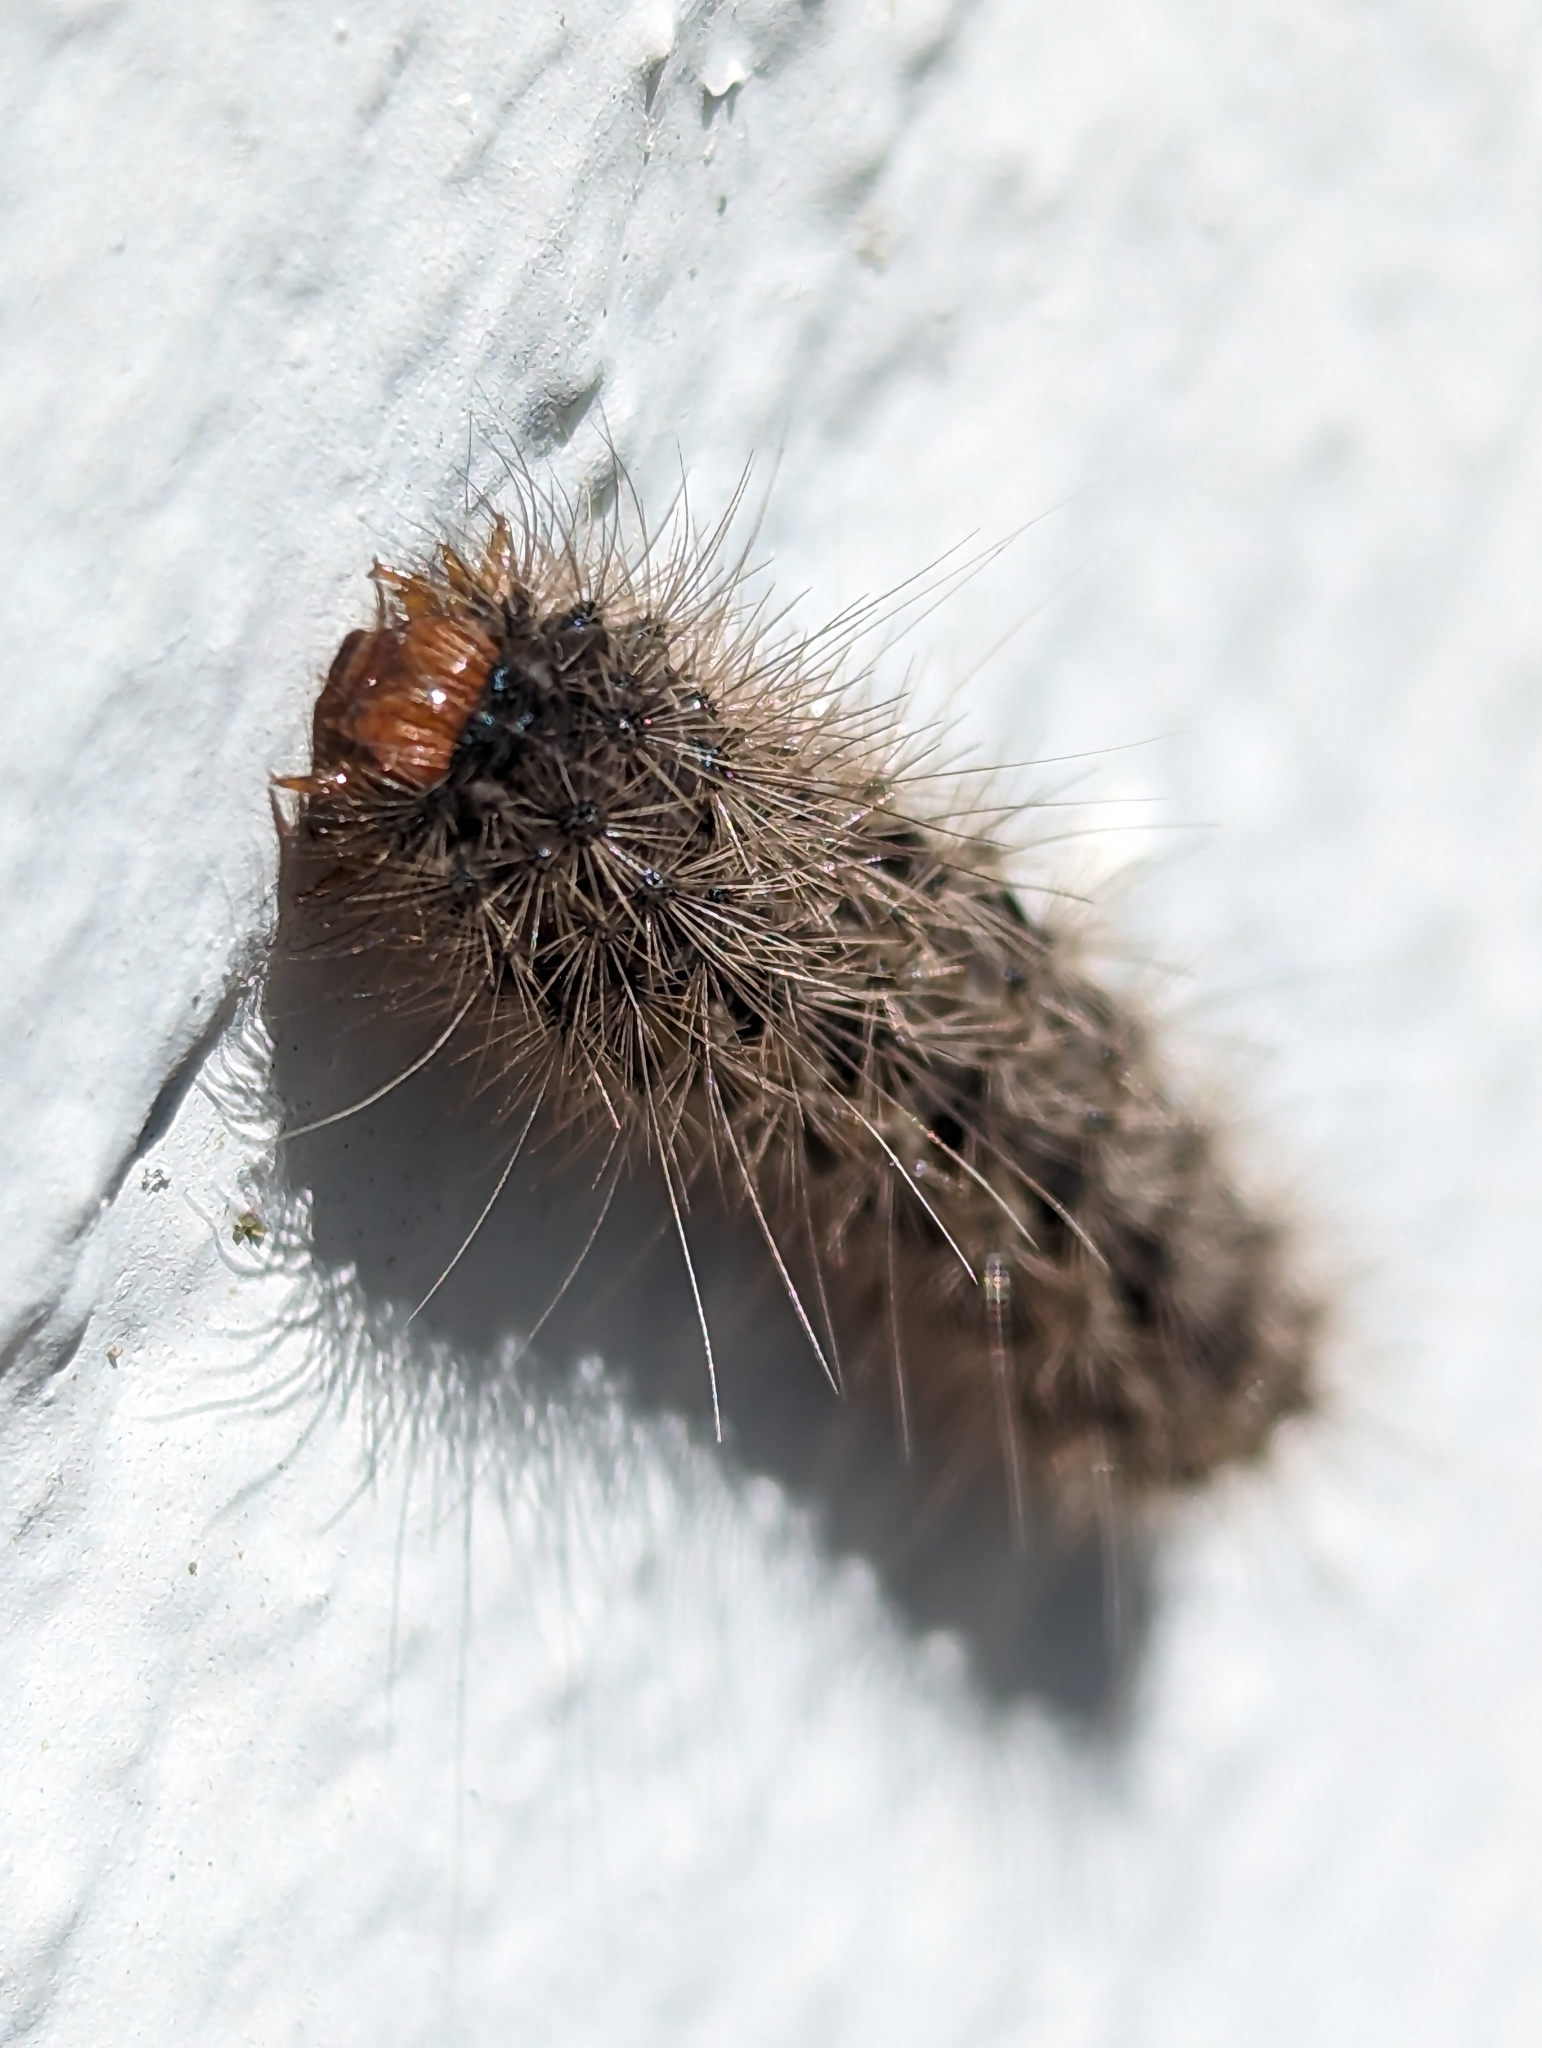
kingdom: Animalia
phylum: Arthropoda
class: Insecta
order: Lepidoptera
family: Erebidae
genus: Cymaroa
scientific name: Cymaroa grisea
